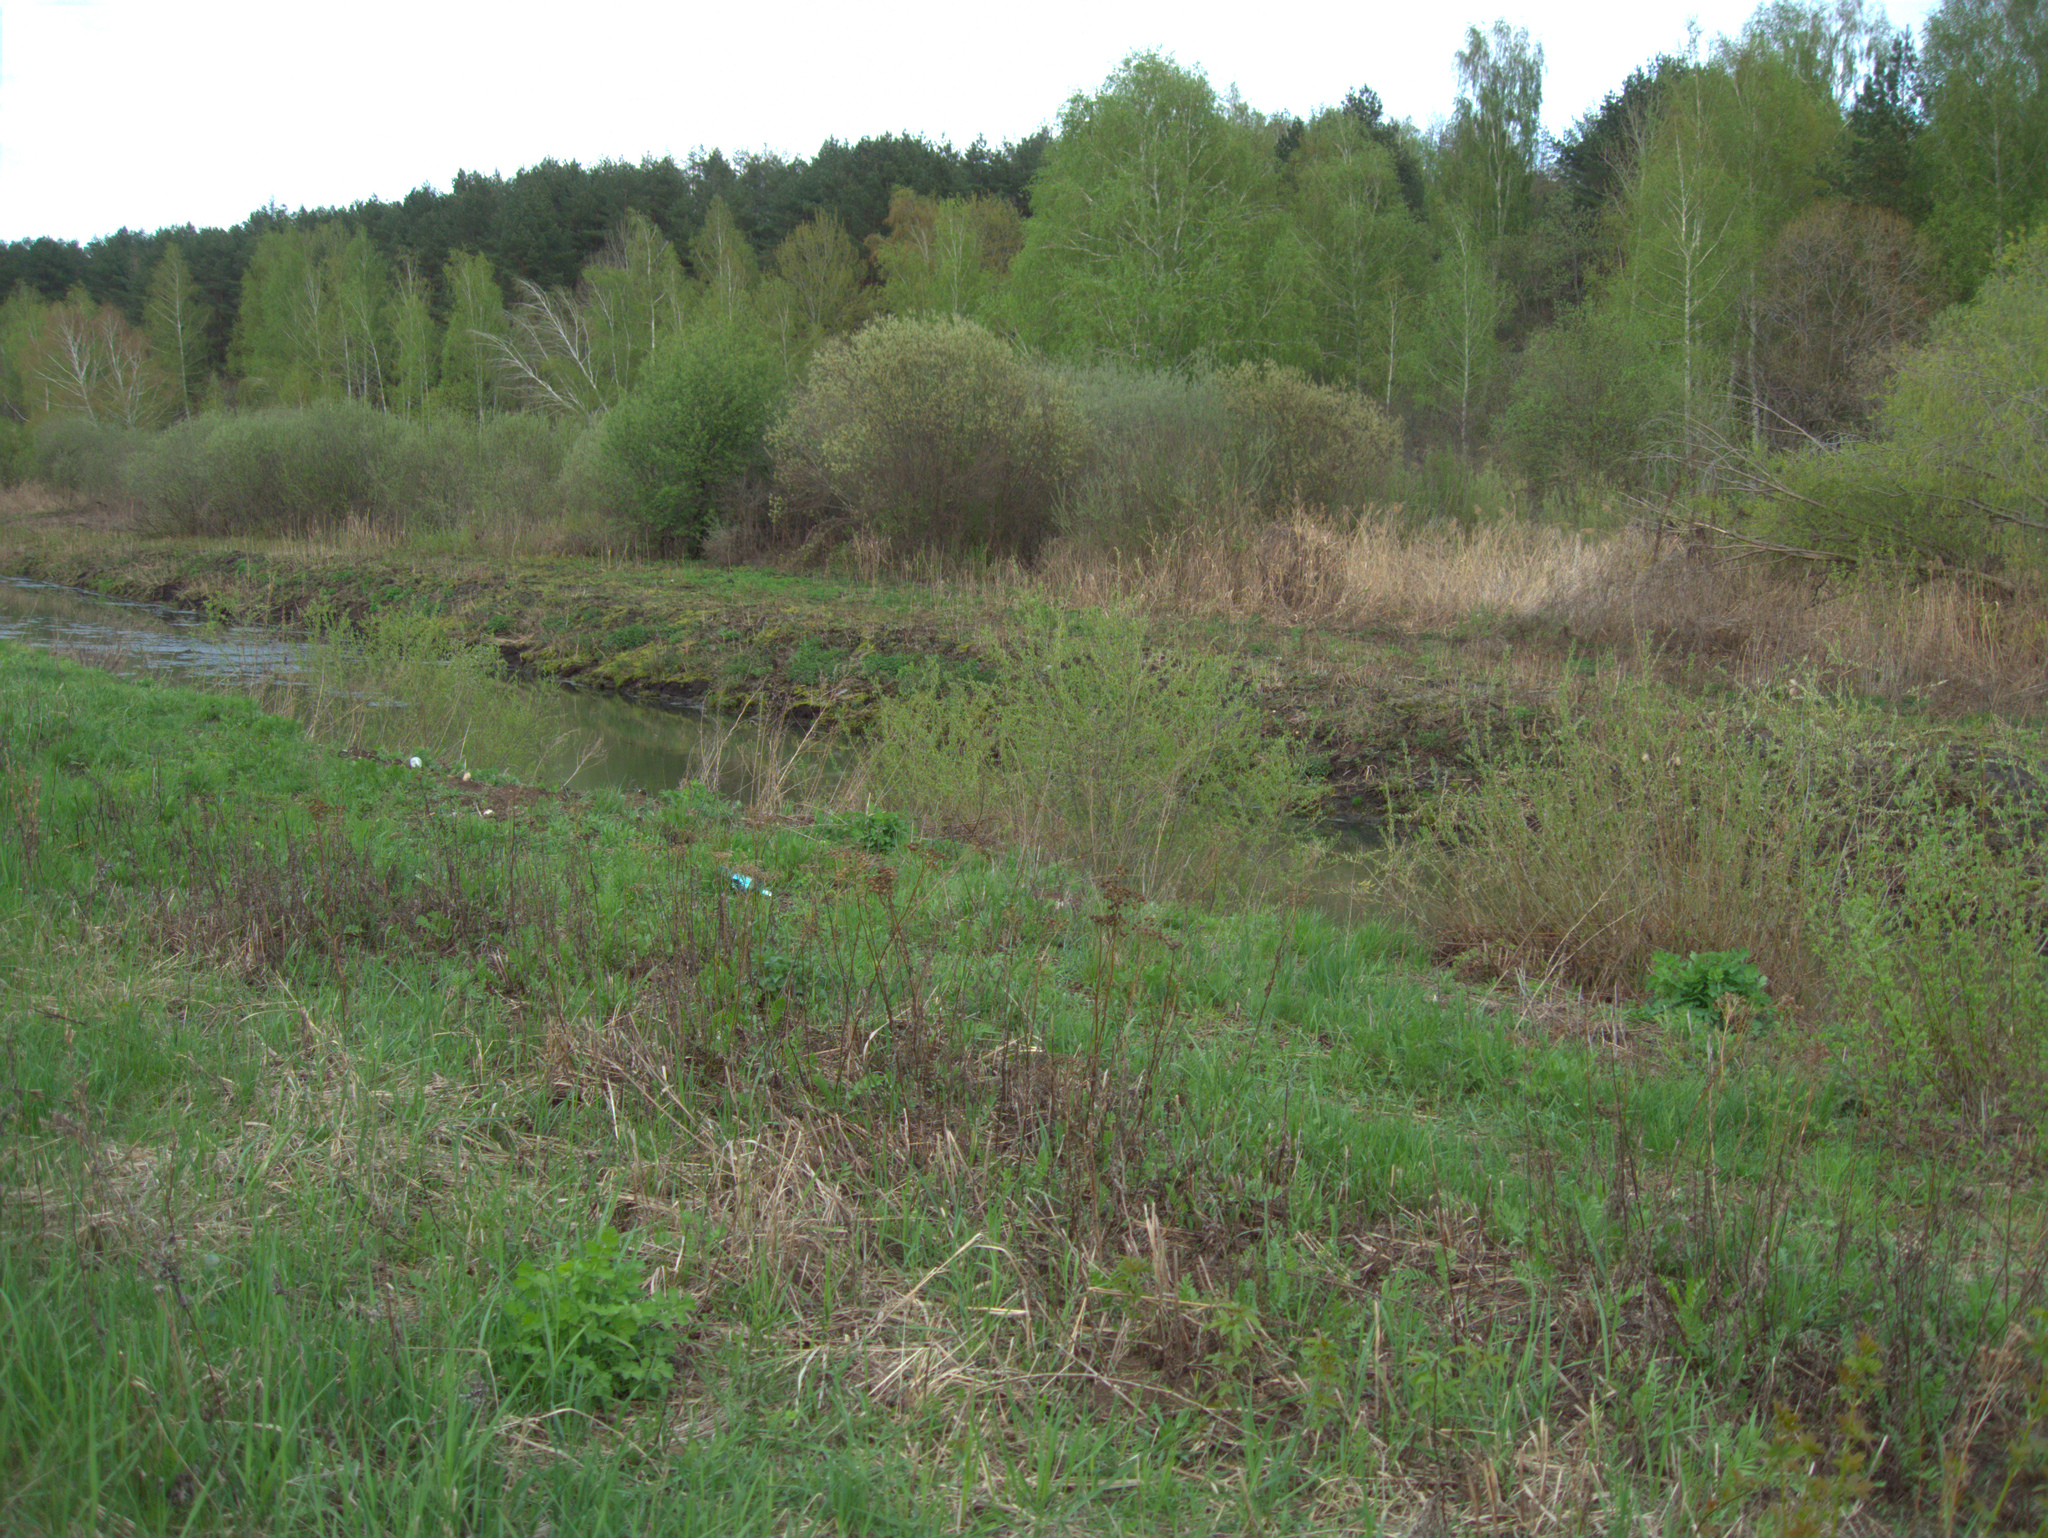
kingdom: Plantae
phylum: Tracheophyta
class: Magnoliopsida
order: Ranunculales
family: Papaveraceae
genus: Chelidonium
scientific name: Chelidonium majus
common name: Greater celandine
